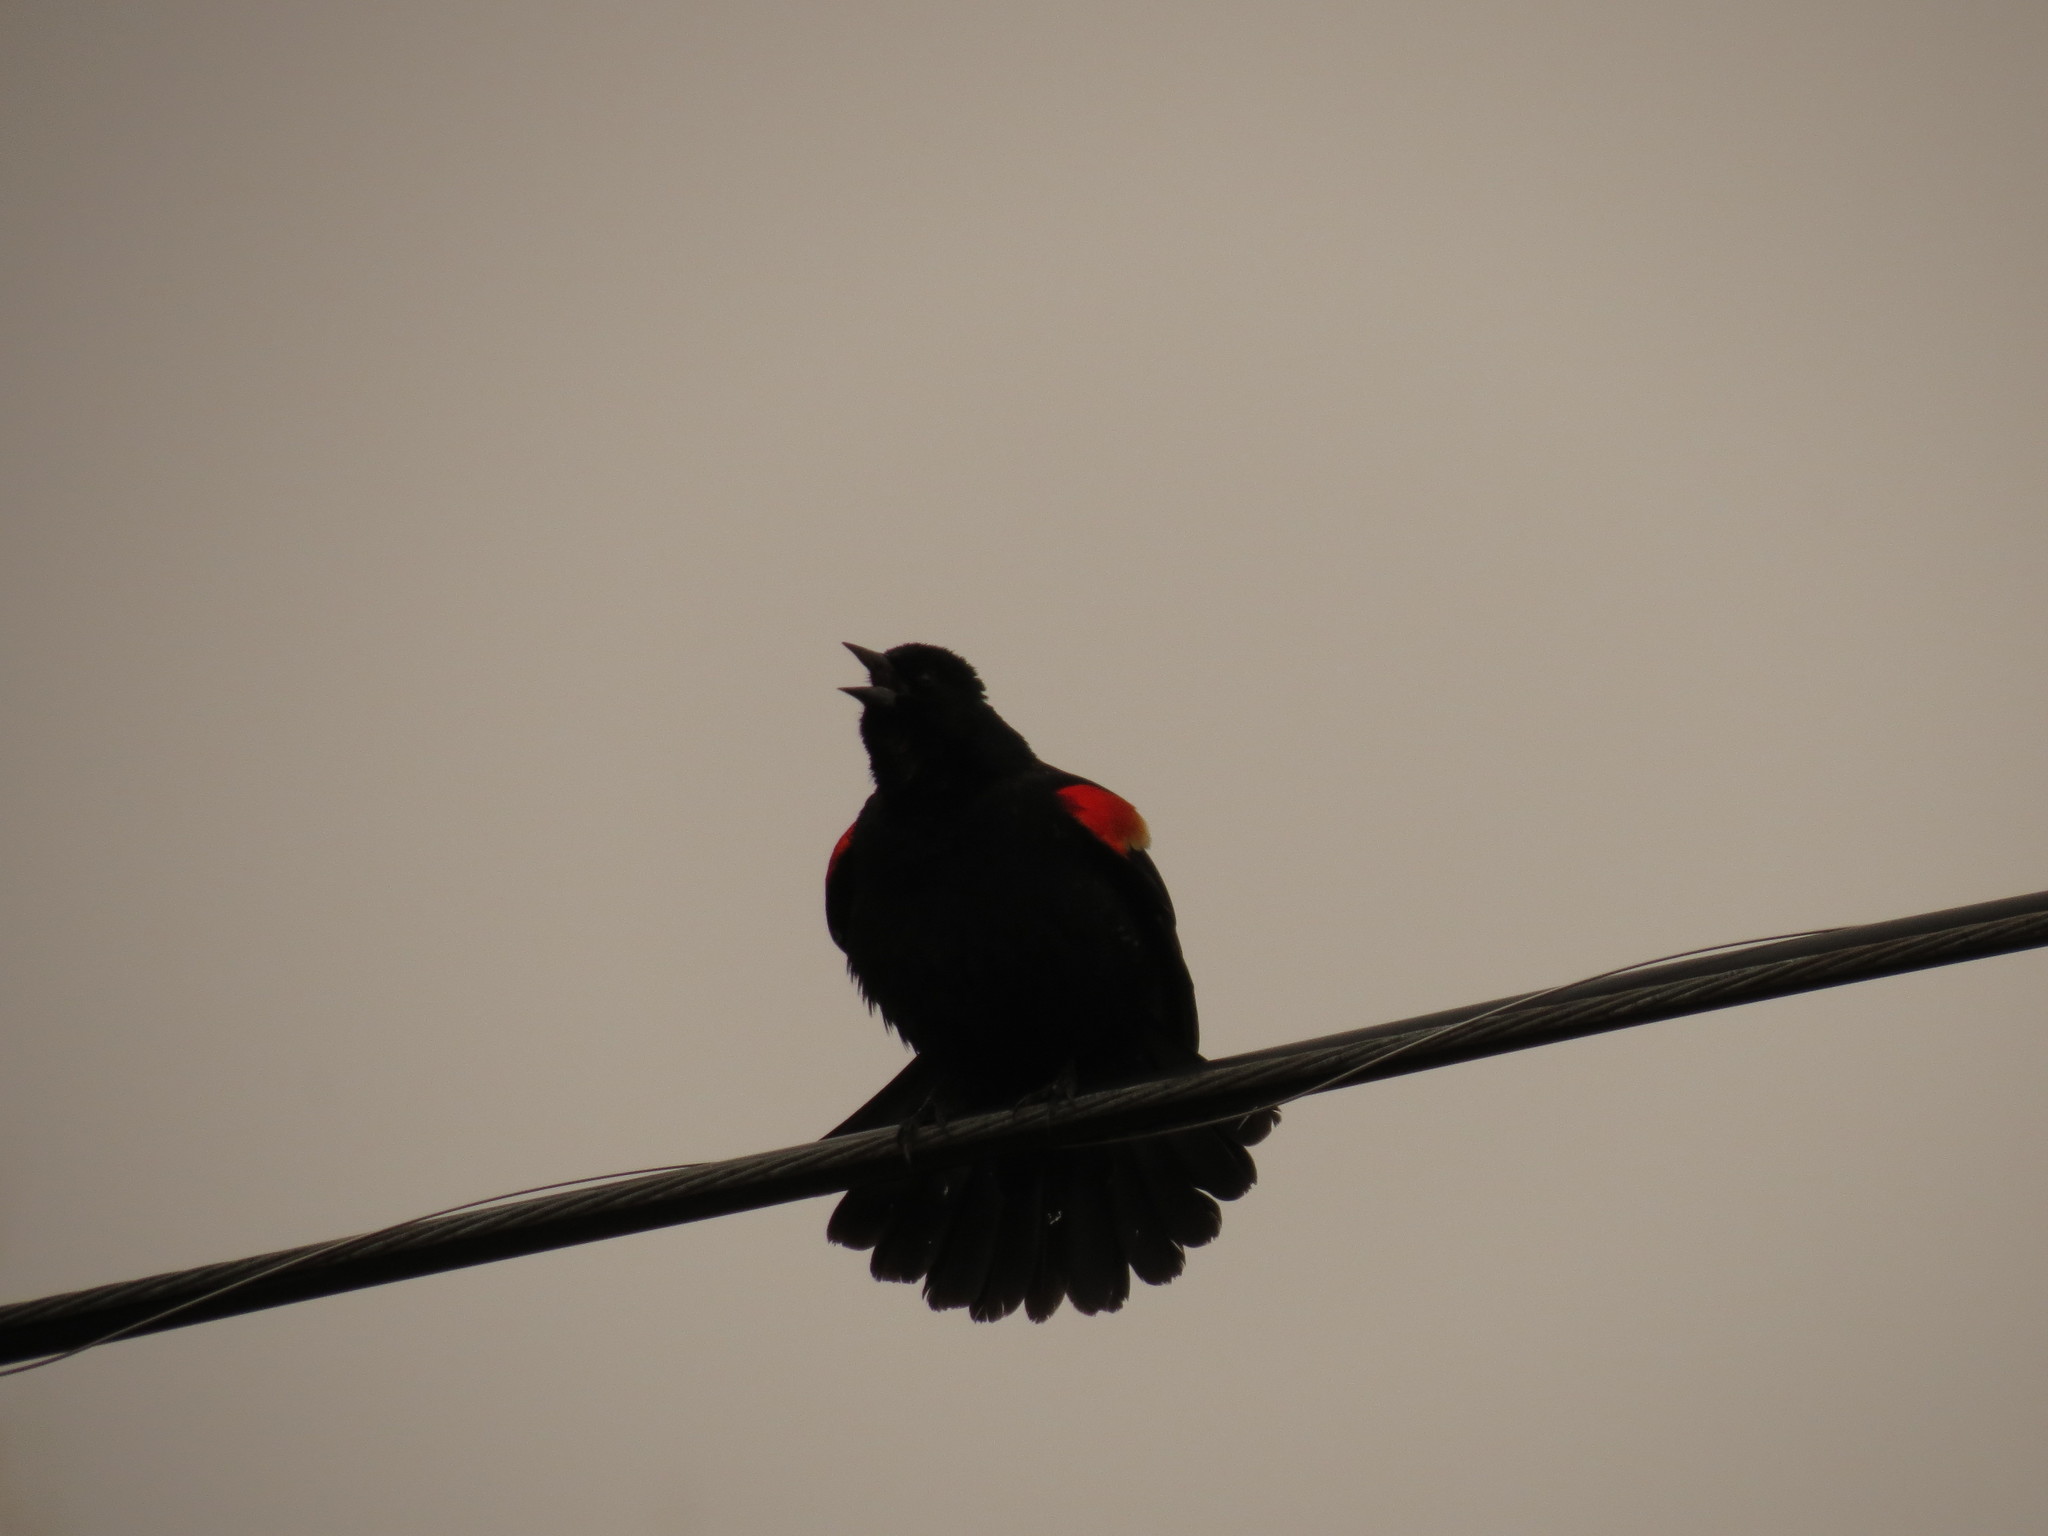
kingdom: Animalia
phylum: Chordata
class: Aves
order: Passeriformes
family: Icteridae
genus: Agelaius
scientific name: Agelaius phoeniceus
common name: Red-winged blackbird
